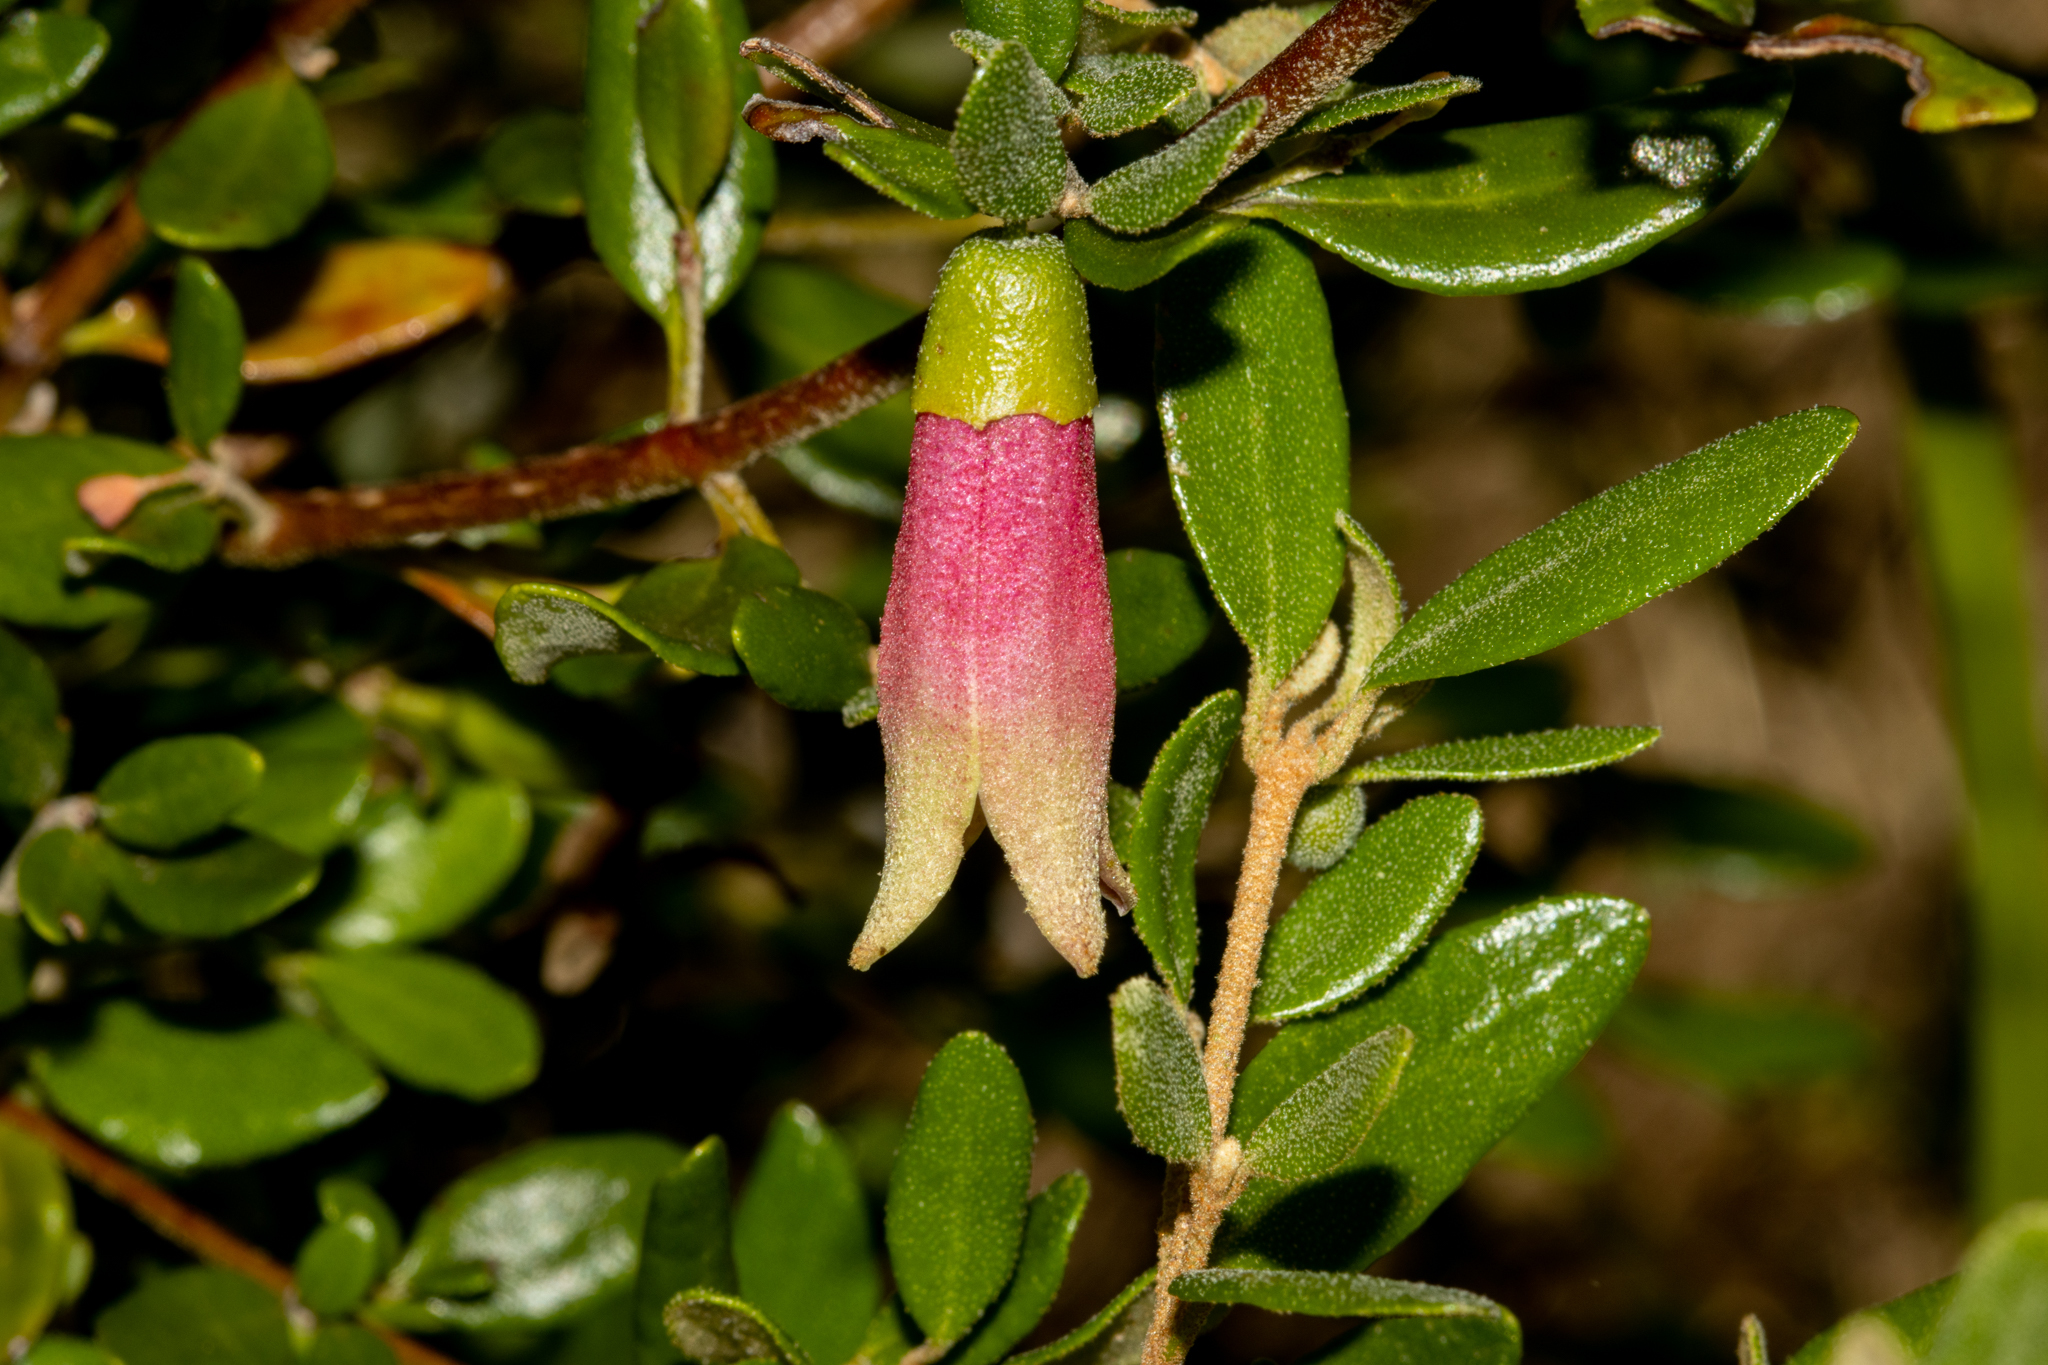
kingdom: Plantae
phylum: Tracheophyta
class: Magnoliopsida
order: Sapindales
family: Rutaceae
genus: Correa
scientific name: Correa glabra
